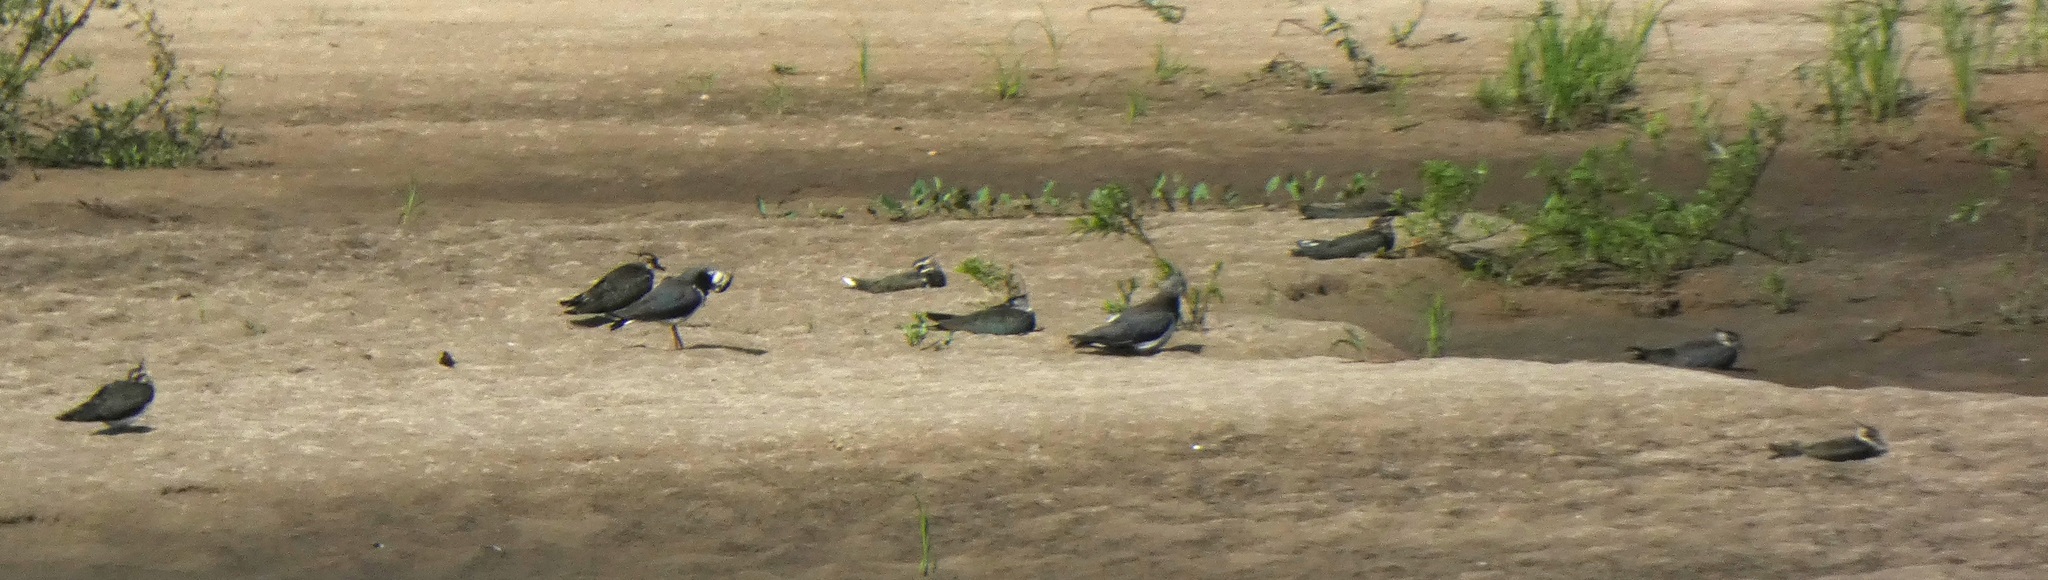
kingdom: Animalia
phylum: Chordata
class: Aves
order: Charadriiformes
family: Charadriidae
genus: Vanellus
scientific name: Vanellus vanellus
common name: Northern lapwing
